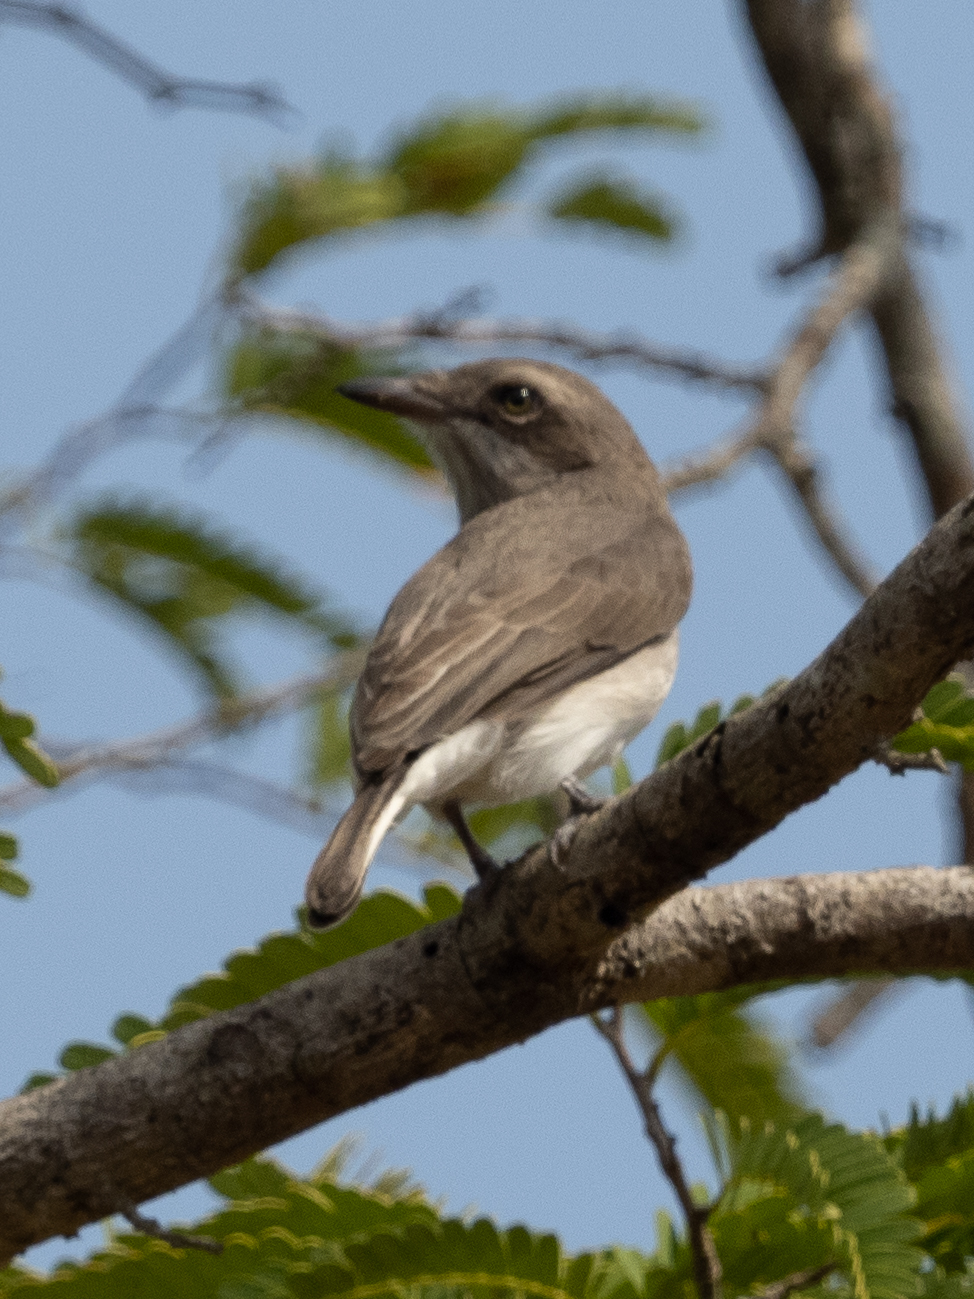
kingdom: Animalia
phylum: Chordata
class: Aves
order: Passeriformes
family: Tephrodornithidae
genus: Tephrodornis
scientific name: Tephrodornis affinis
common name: Sri lanka woodshrike
